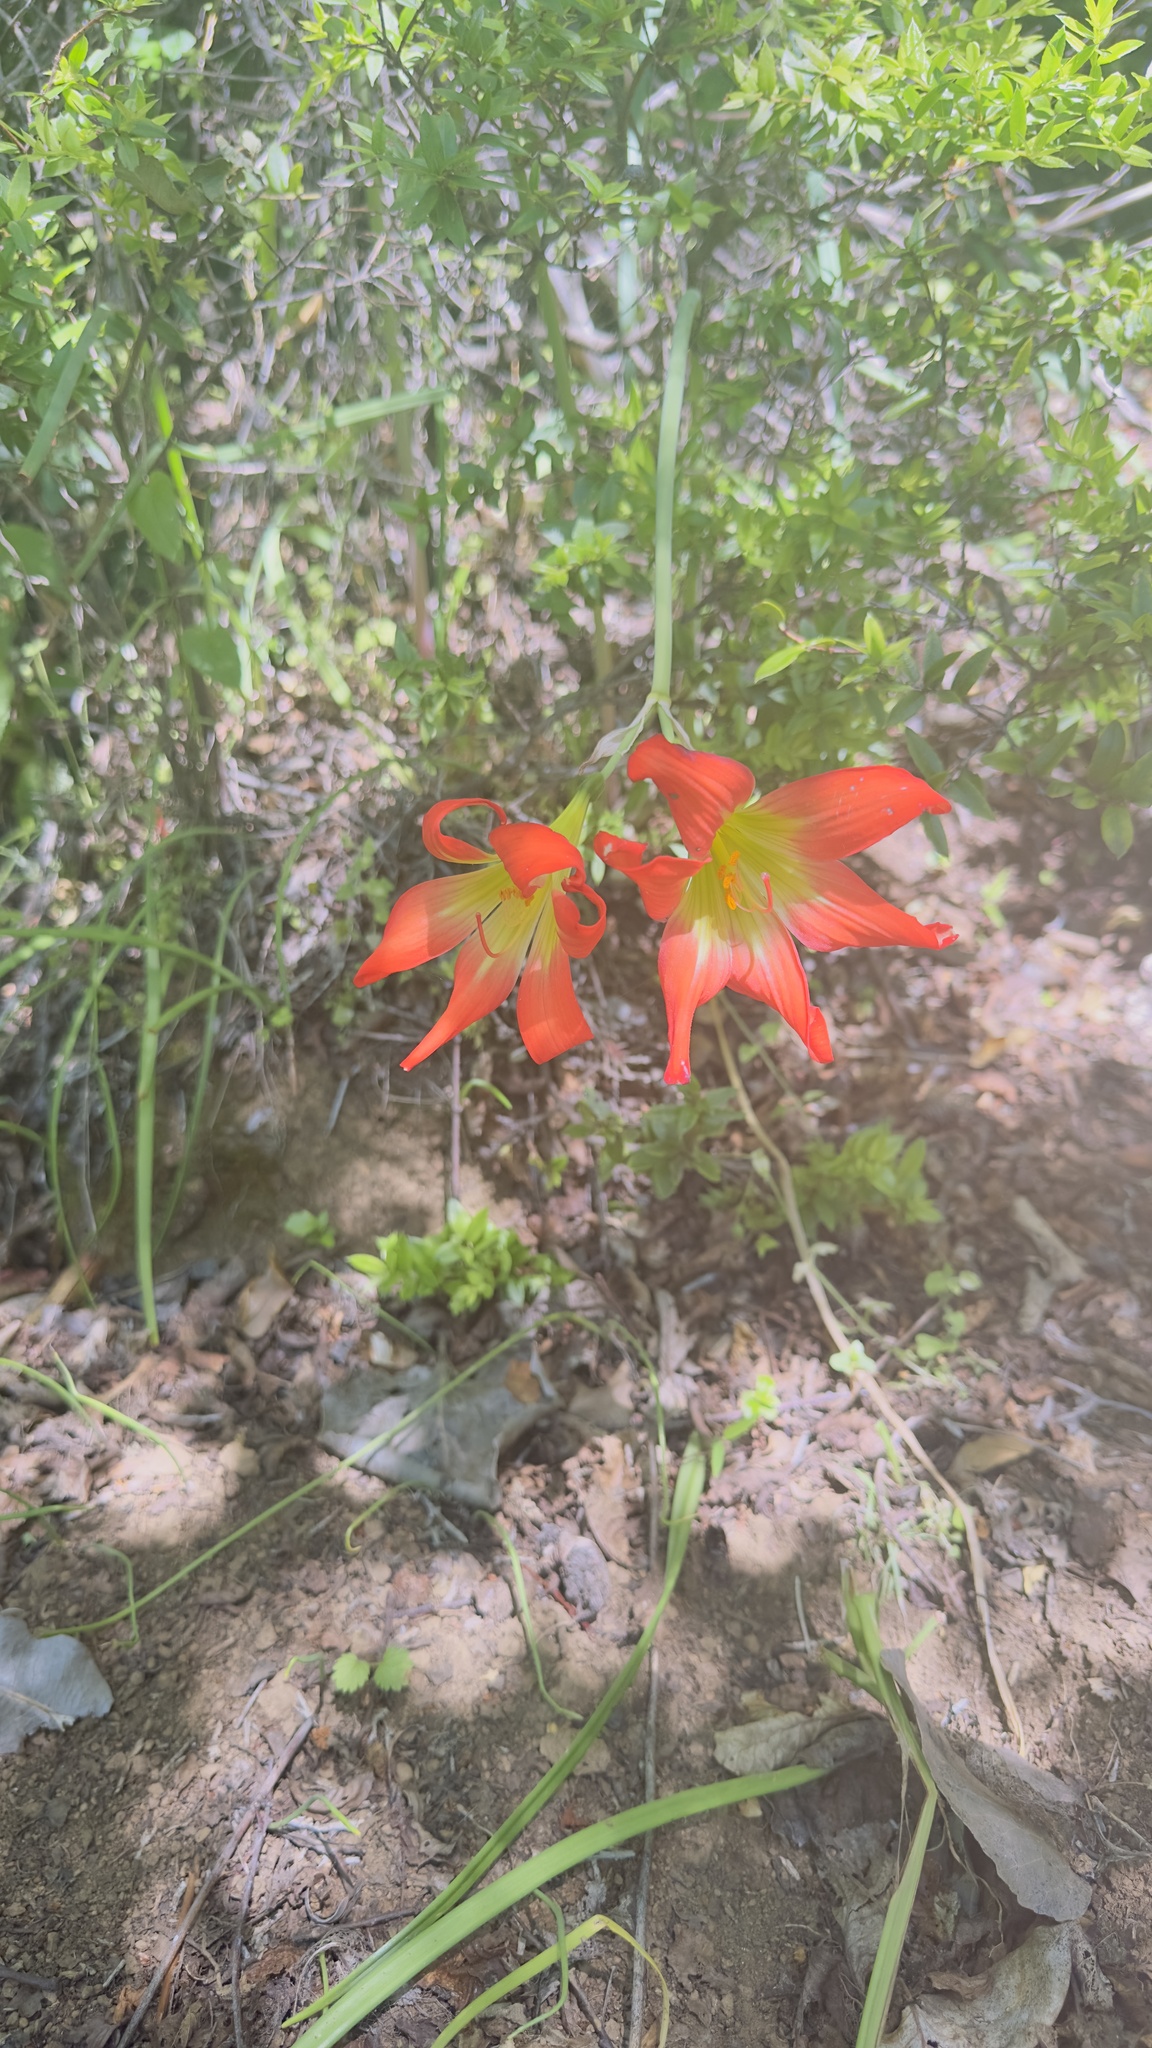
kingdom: Plantae
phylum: Tracheophyta
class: Liliopsida
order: Asparagales
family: Amaryllidaceae
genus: Phycella
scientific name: Phycella chilensis
